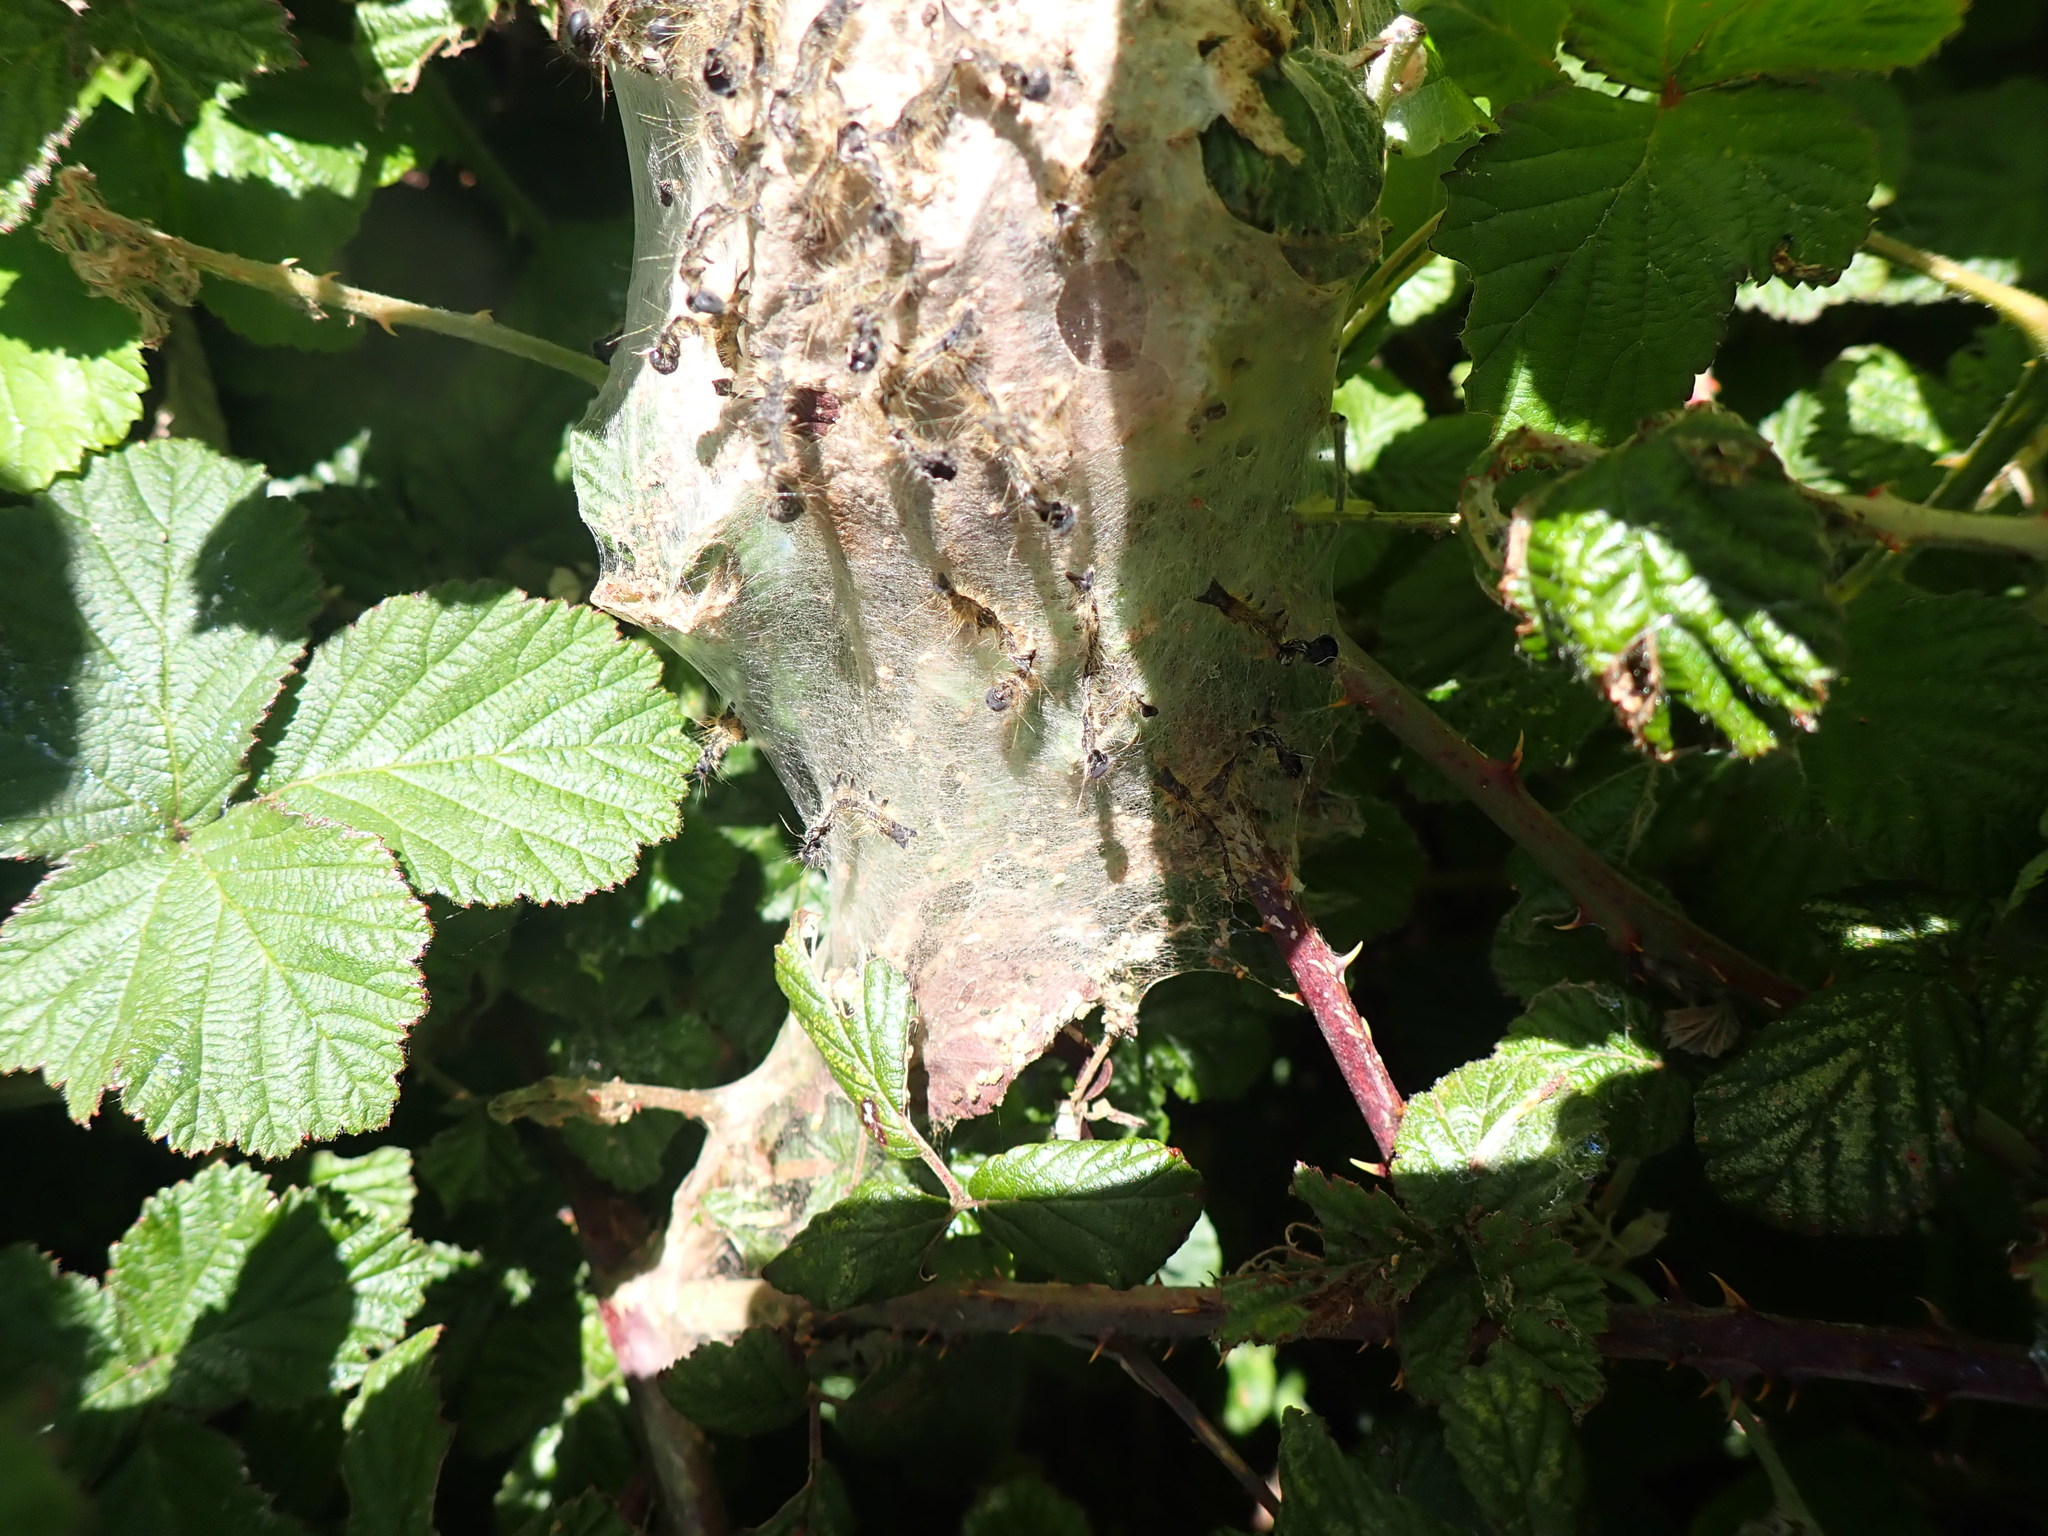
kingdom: Animalia
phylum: Arthropoda
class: Insecta
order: Lepidoptera
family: Lasiocampidae
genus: Malacosoma
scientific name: Malacosoma neustria
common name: The lackey
